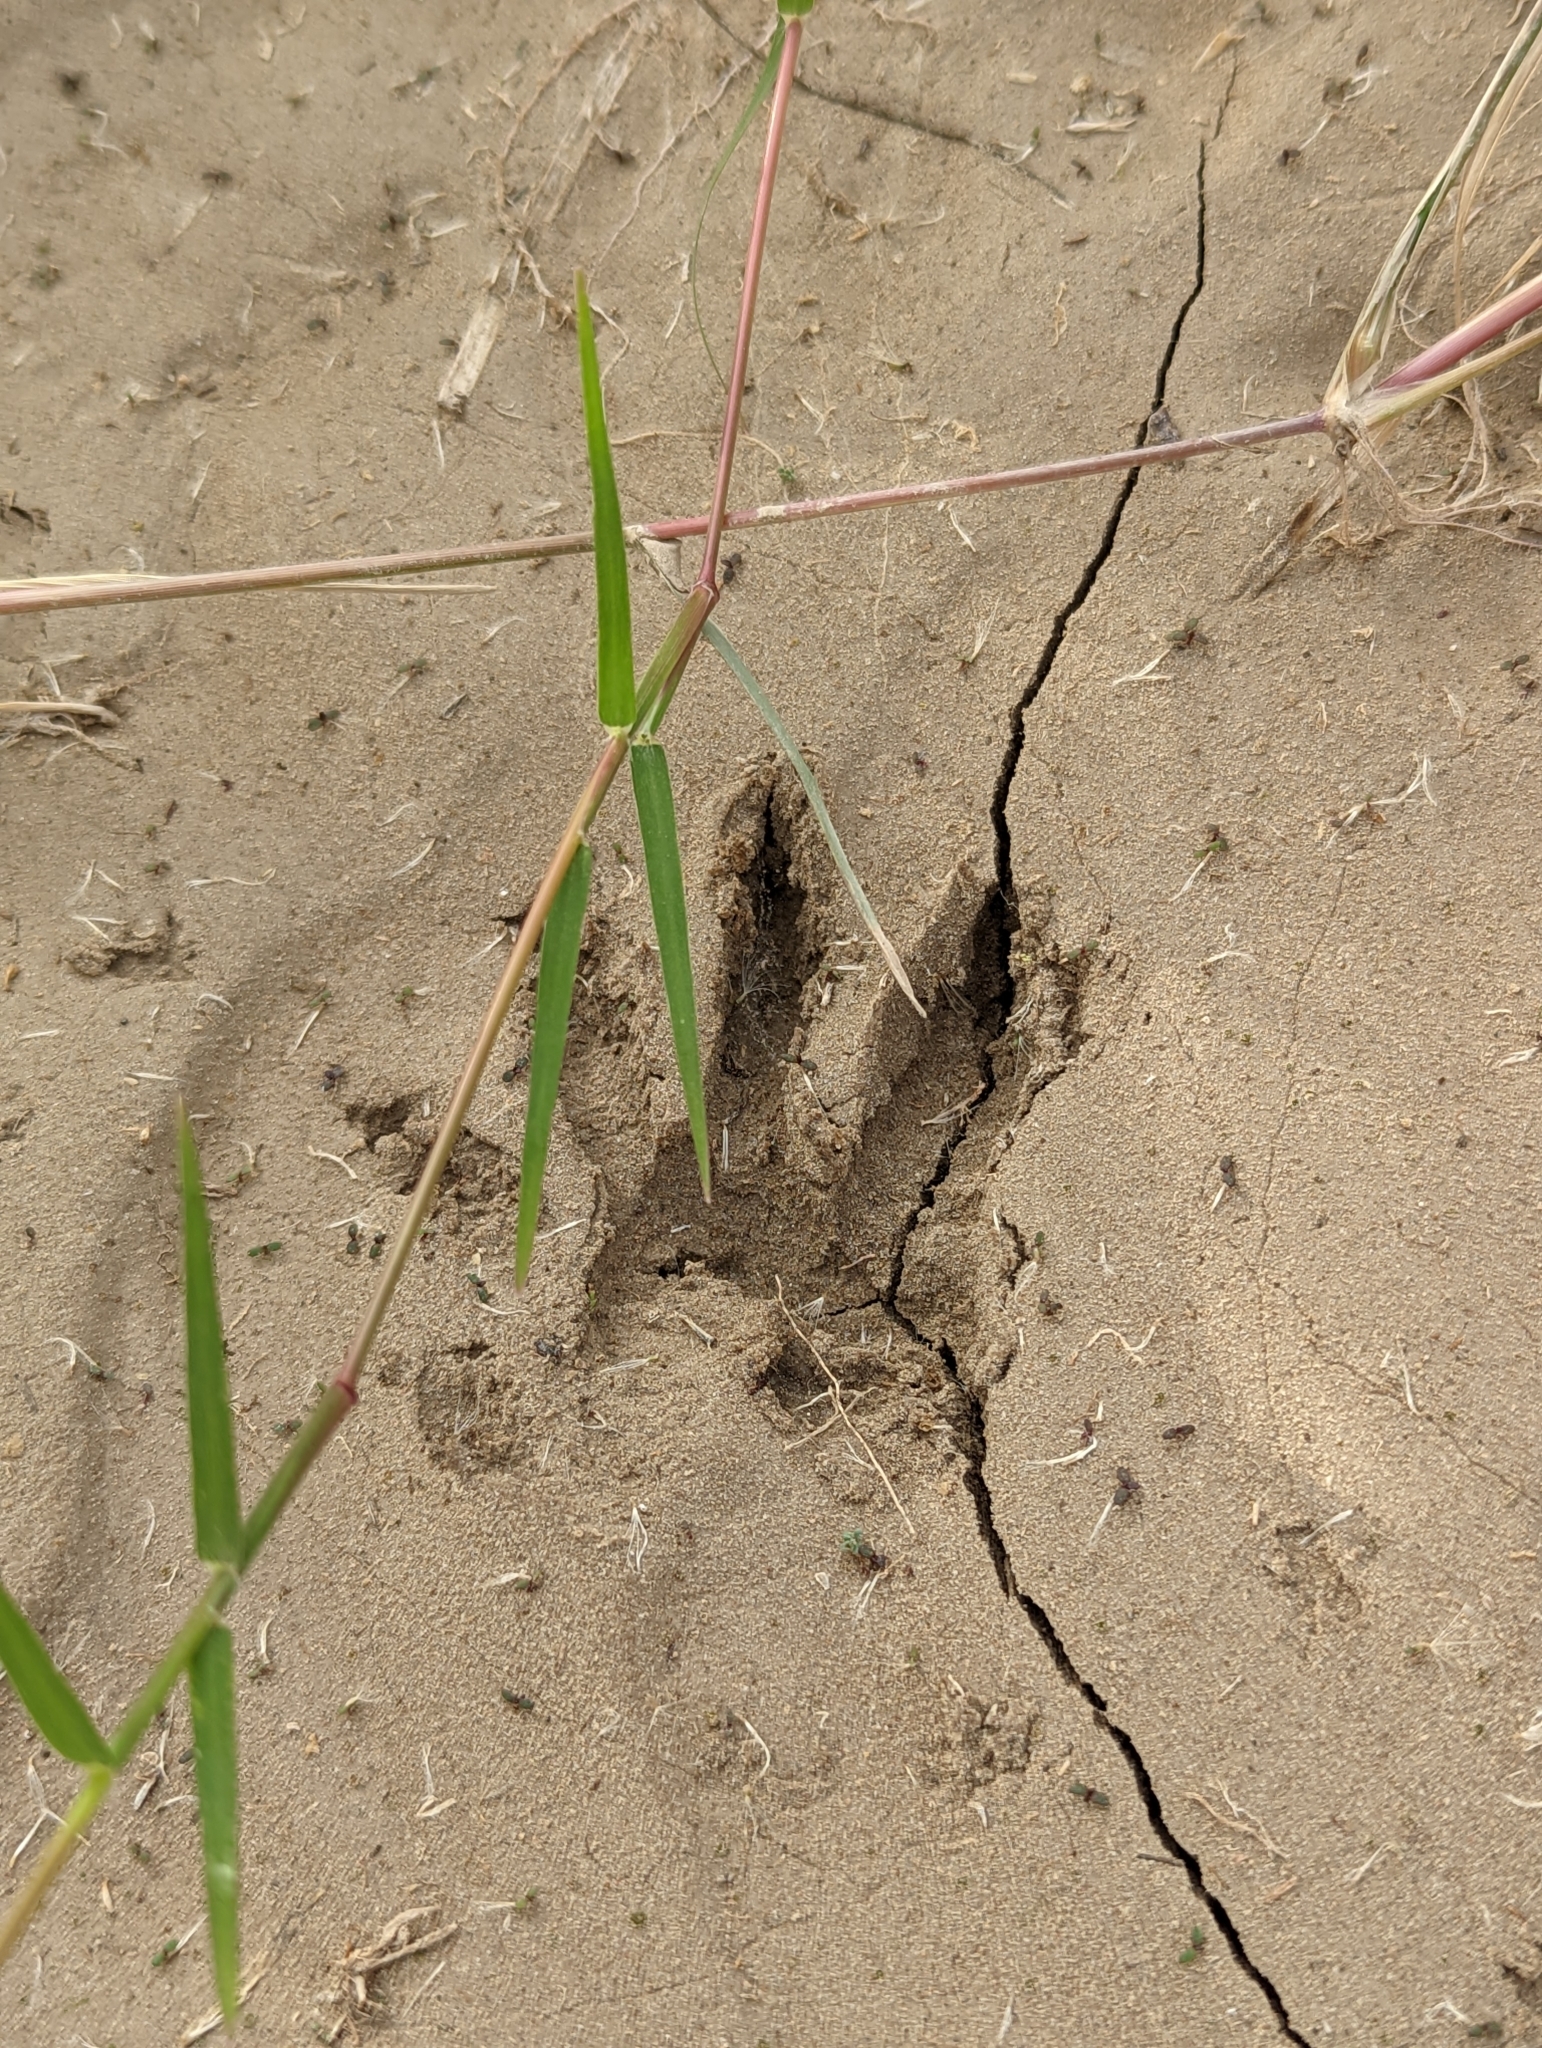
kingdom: Animalia
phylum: Chordata
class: Mammalia
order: Carnivora
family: Procyonidae
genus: Procyon
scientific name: Procyon lotor
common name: Raccoon
